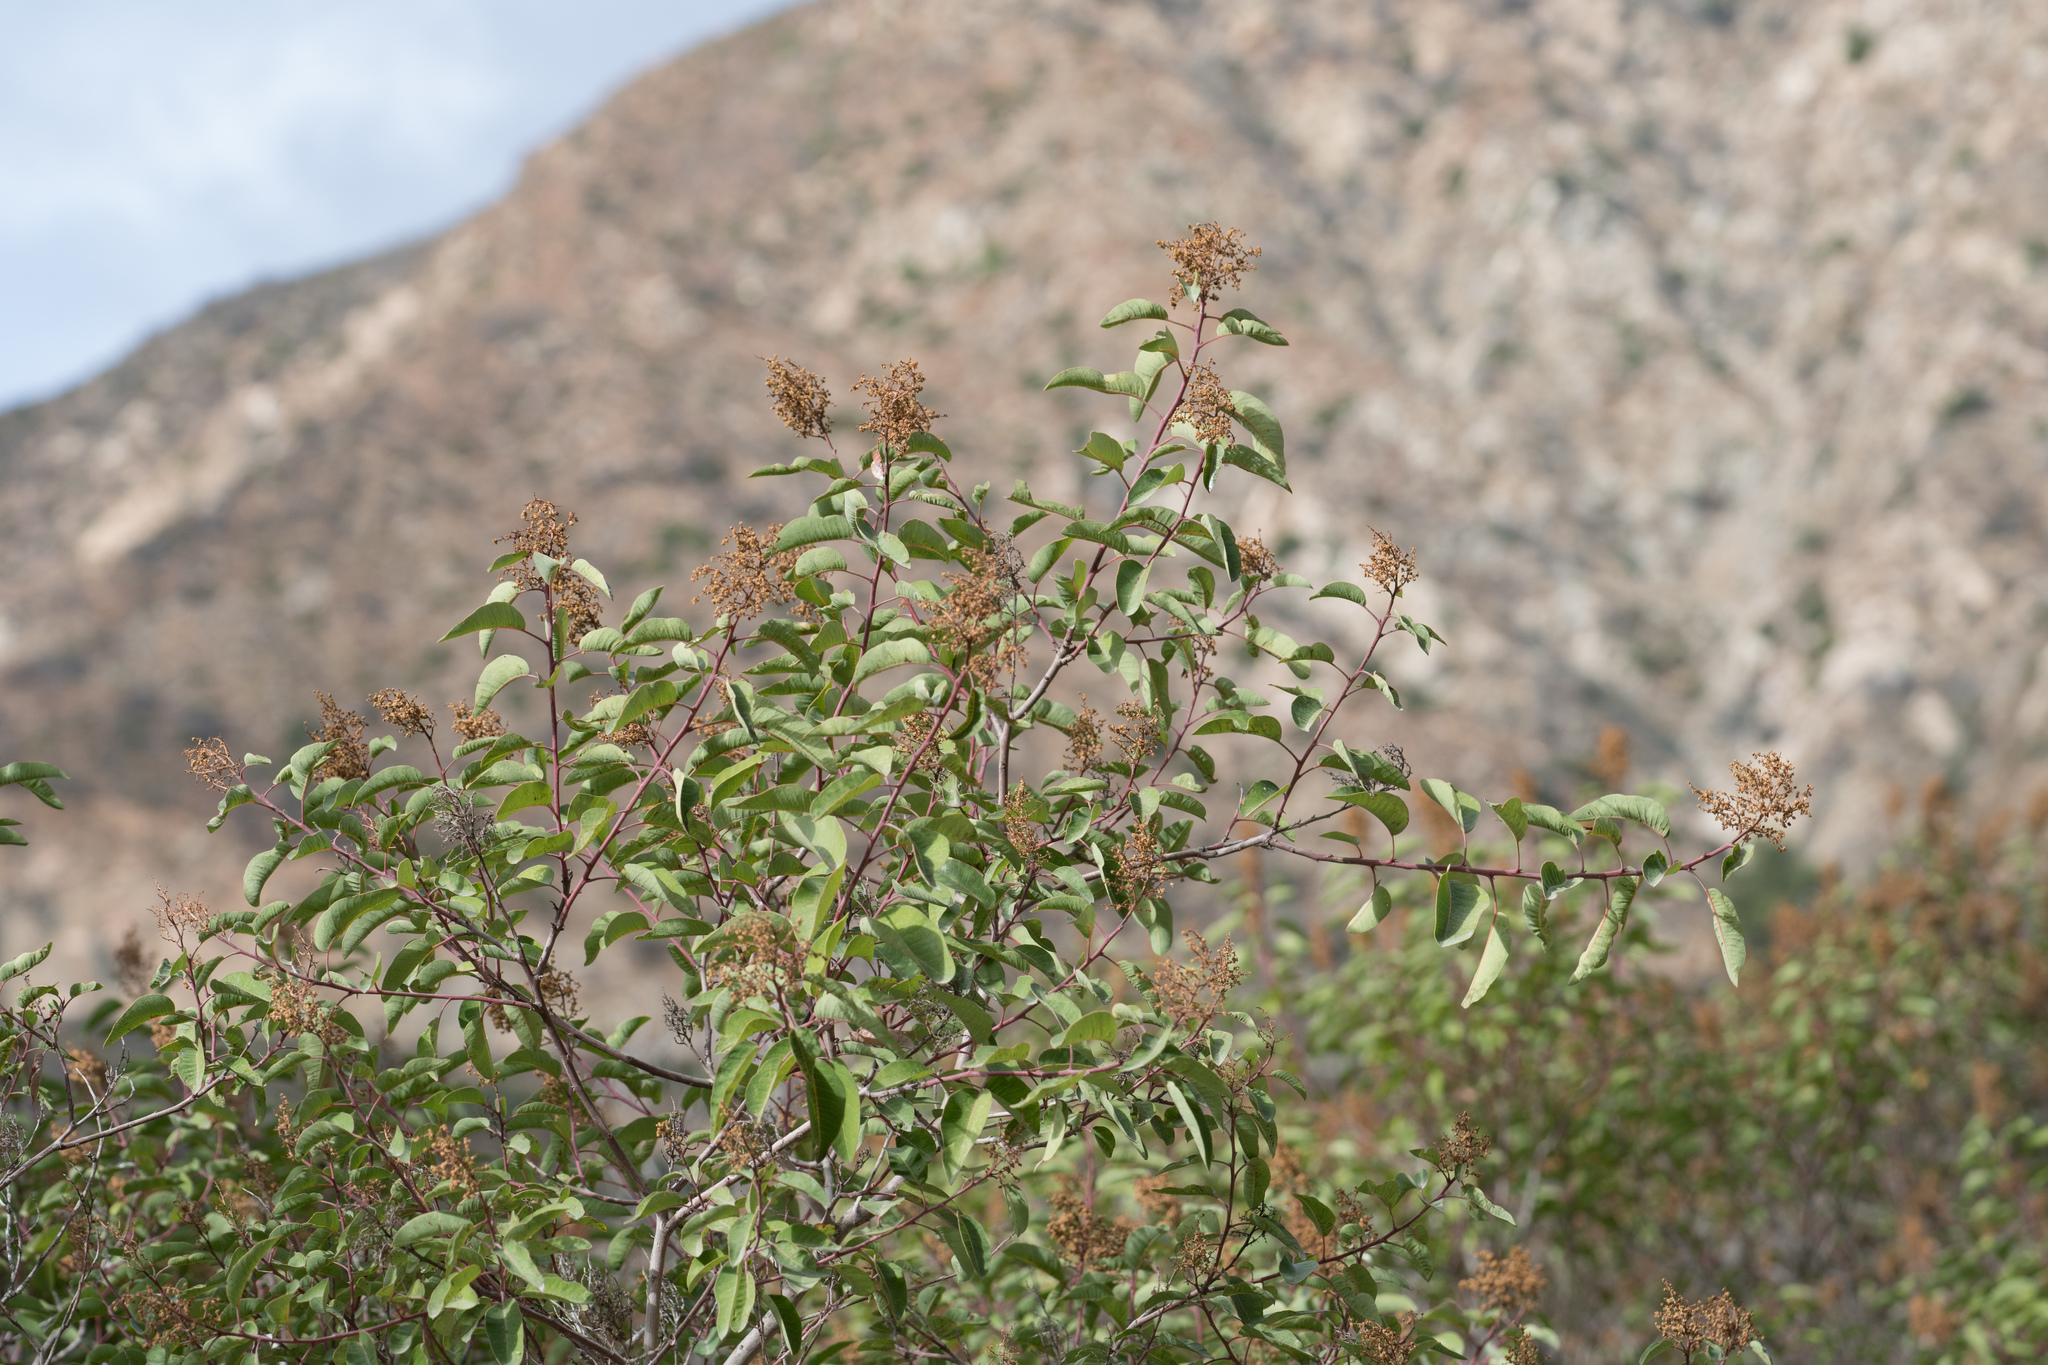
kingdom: Plantae
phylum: Tracheophyta
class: Magnoliopsida
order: Sapindales
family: Anacardiaceae
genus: Malosma
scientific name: Malosma laurina
